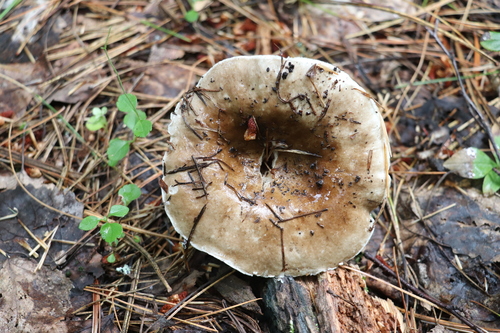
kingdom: Fungi
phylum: Basidiomycota
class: Agaricomycetes
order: Russulales
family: Russulaceae
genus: Russula
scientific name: Russula acrifolia
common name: Hotlips brittlegill
